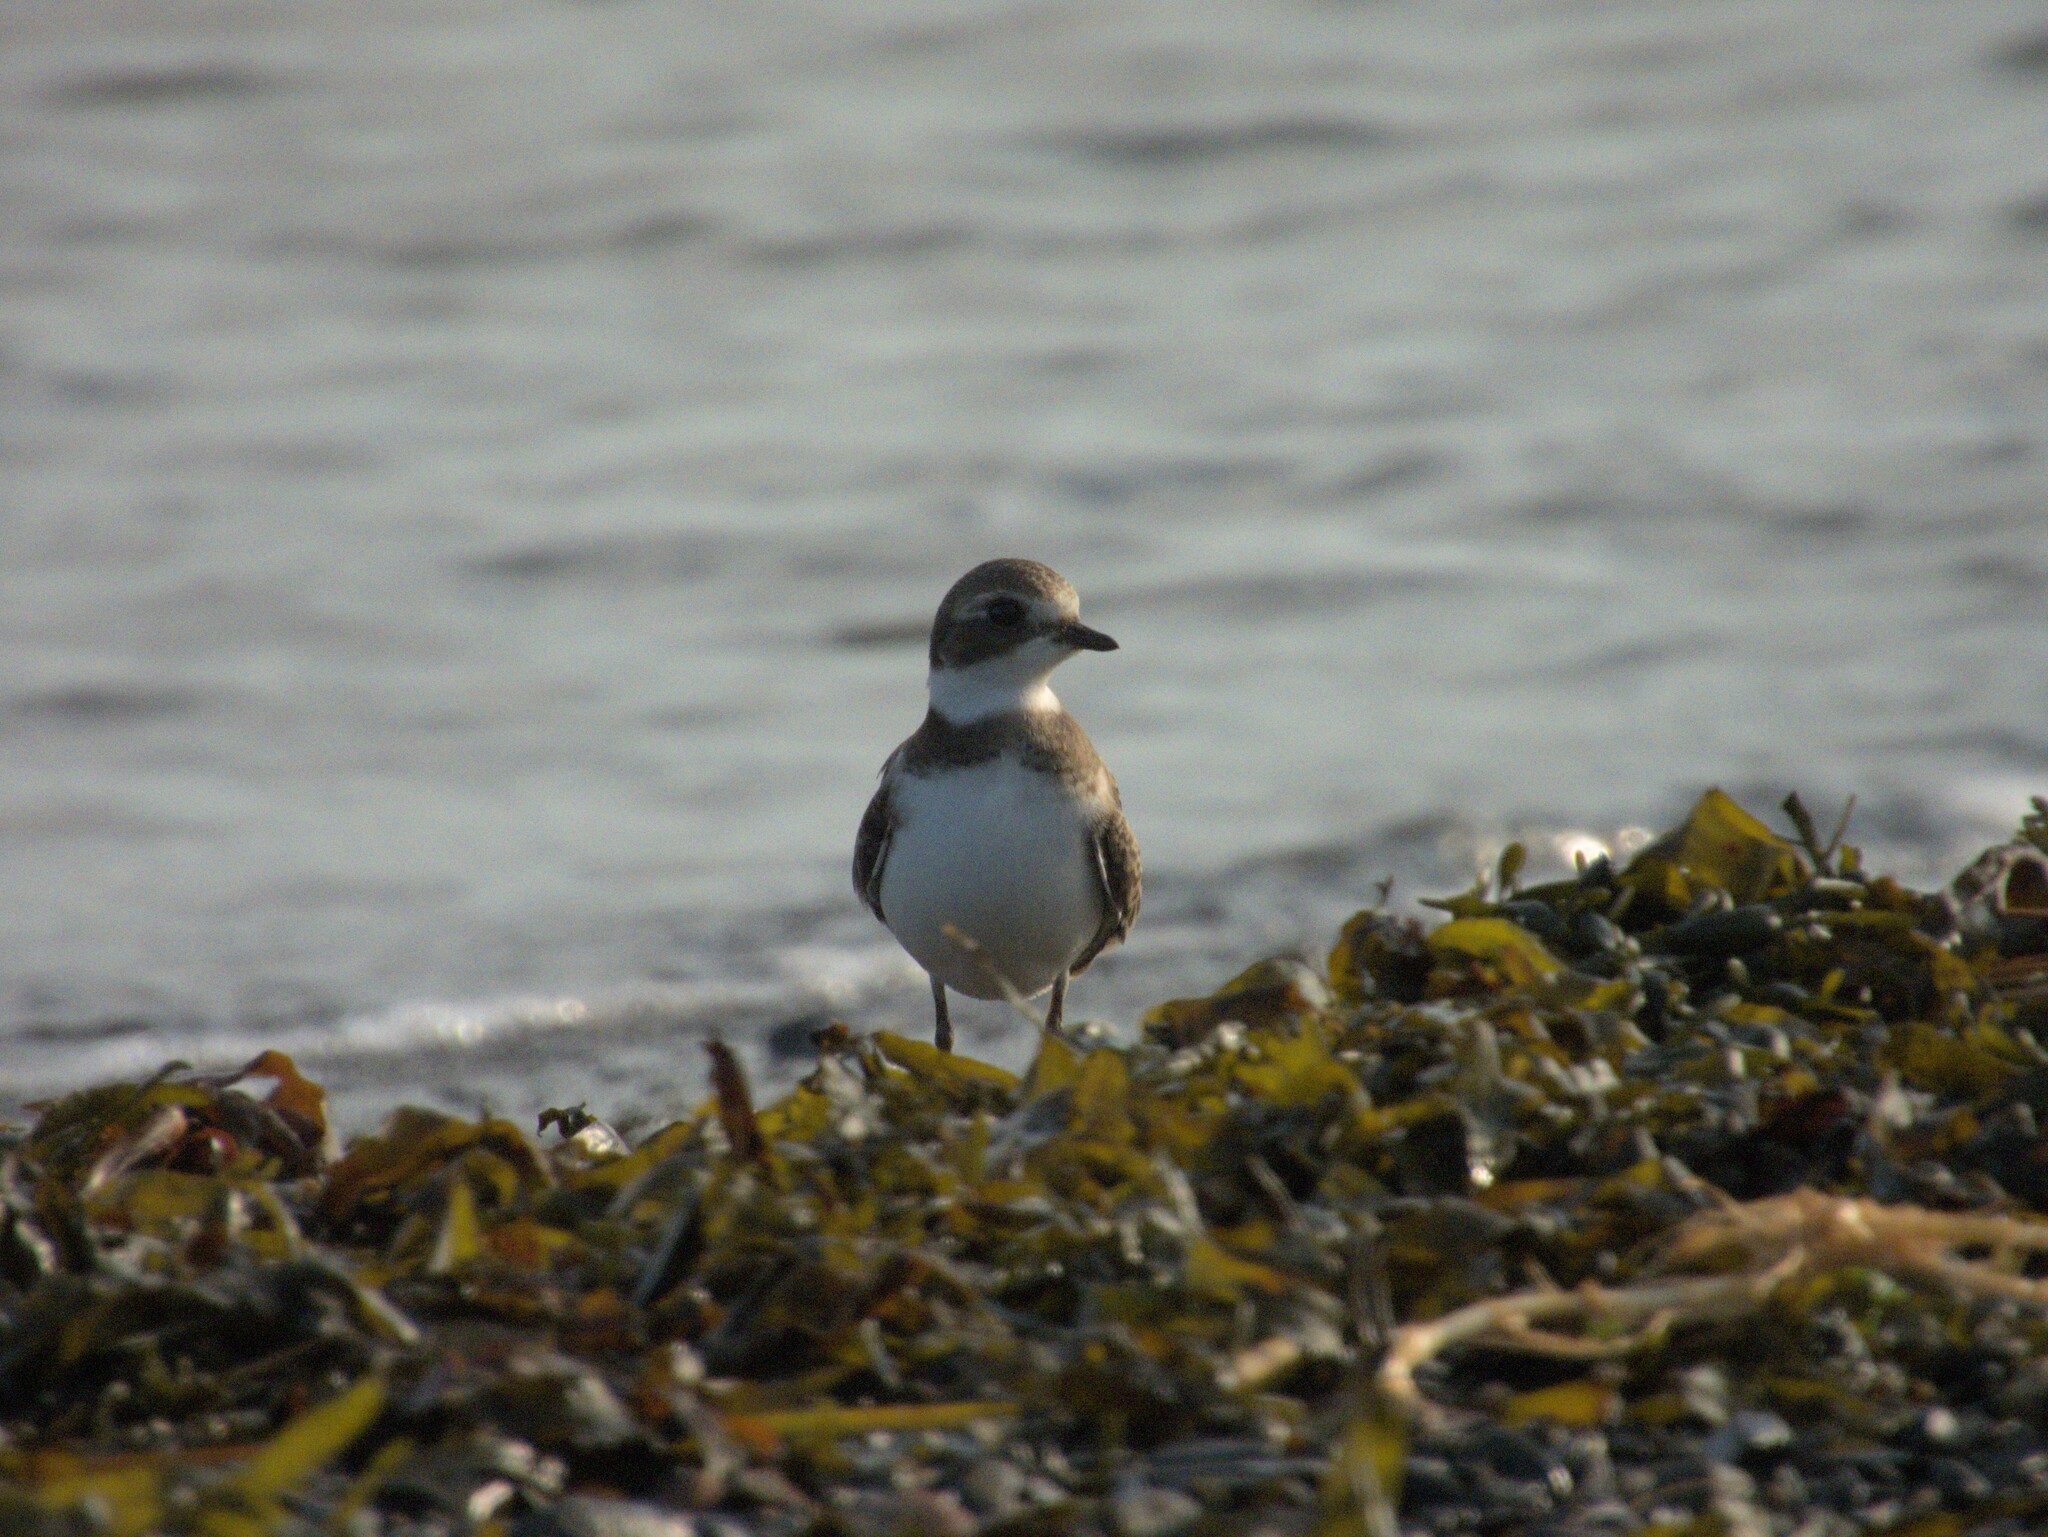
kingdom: Animalia
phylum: Chordata
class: Aves
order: Charadriiformes
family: Charadriidae
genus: Charadrius
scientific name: Charadrius semipalmatus
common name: Semipalmated plover
